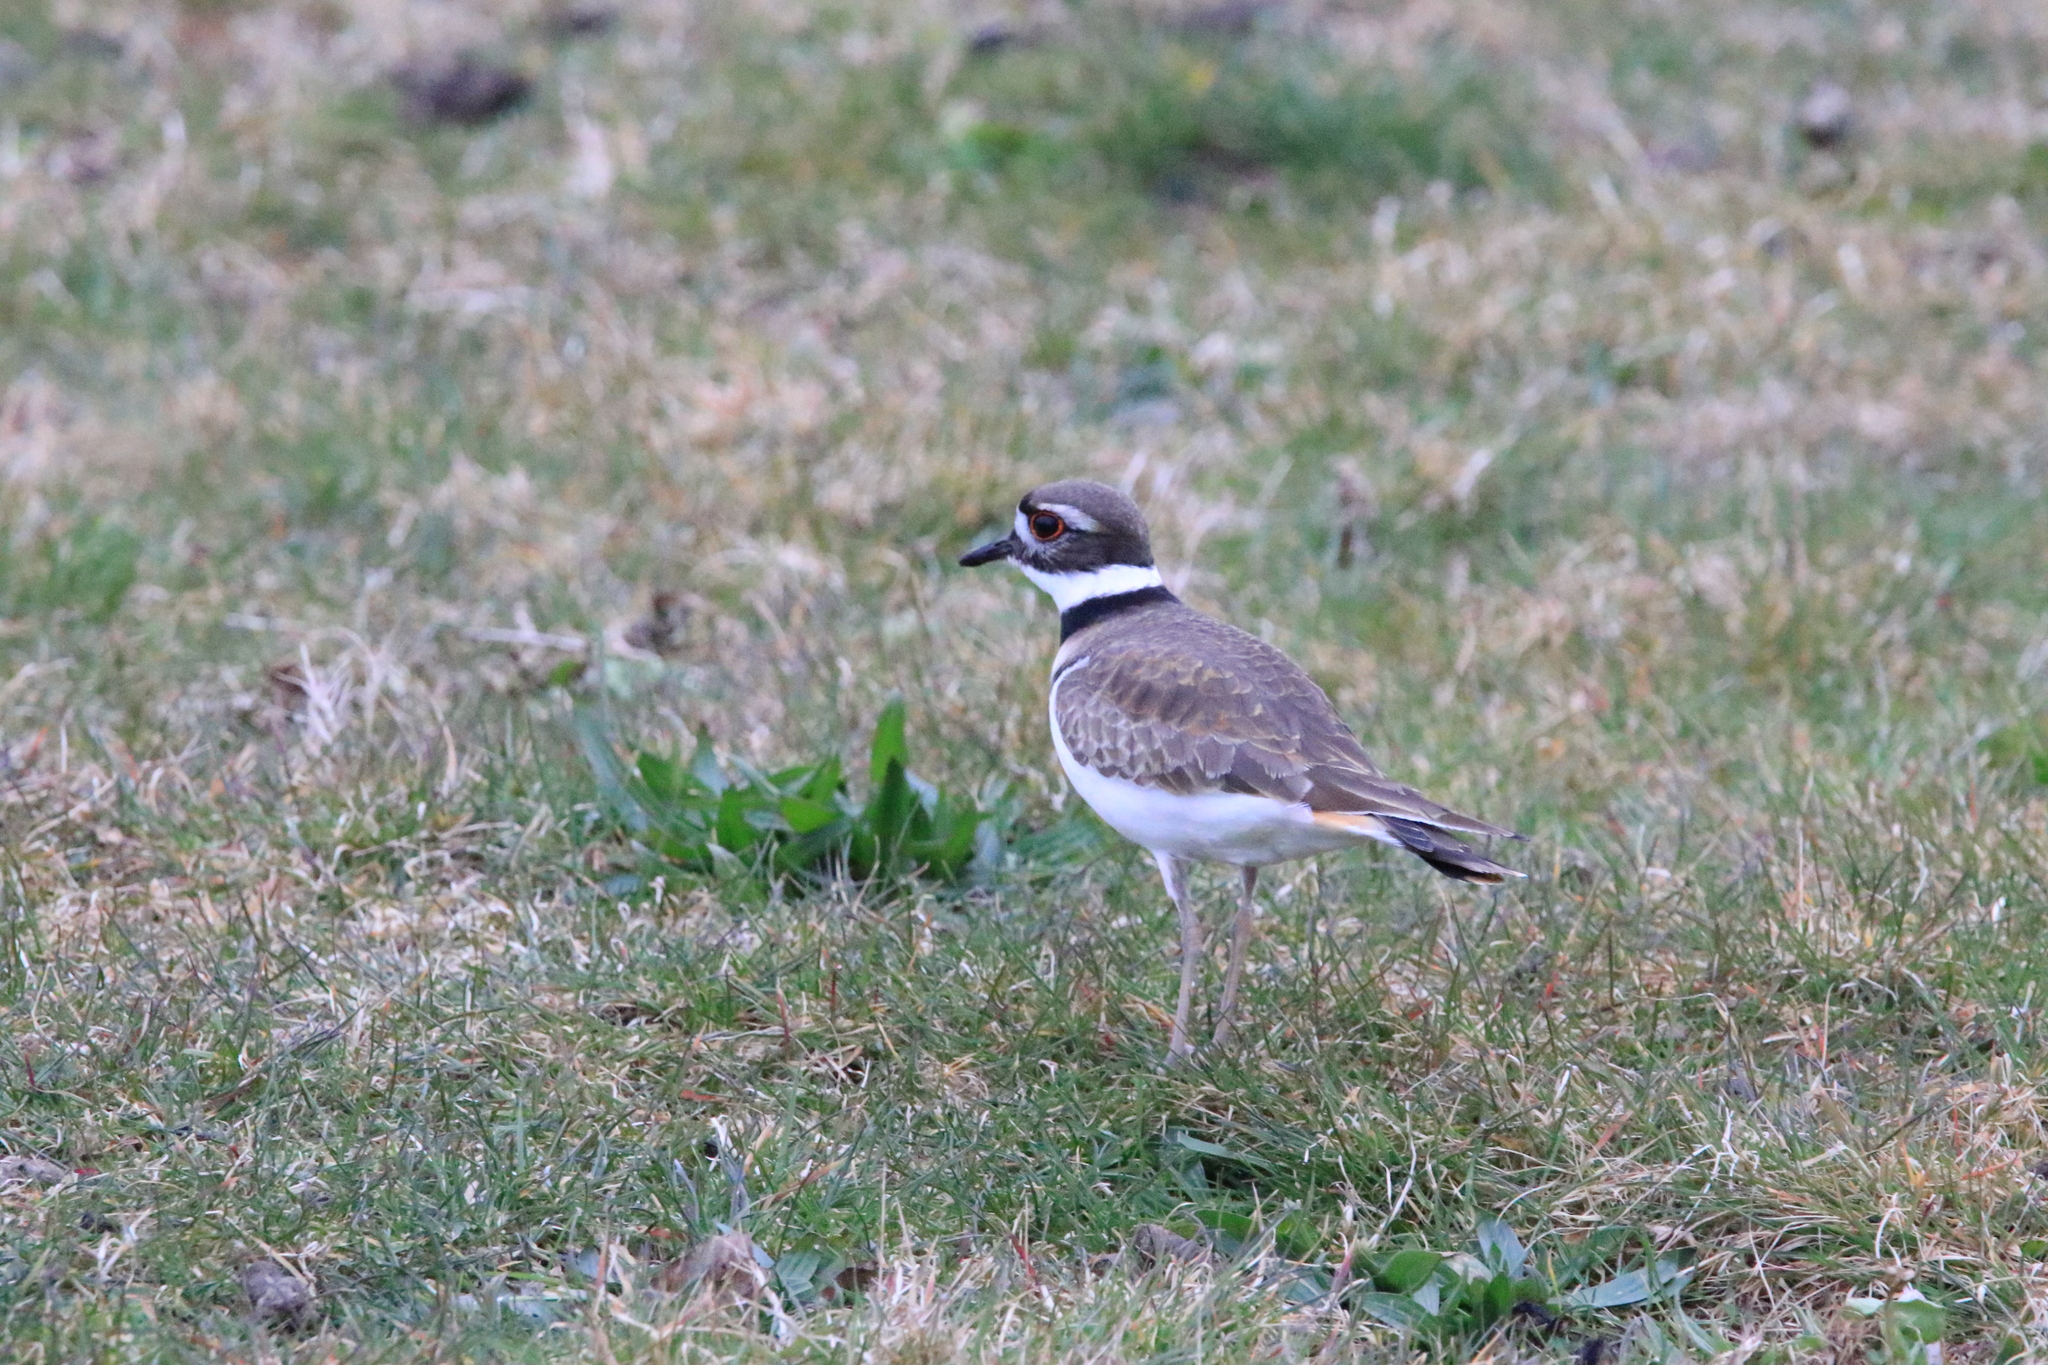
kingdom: Animalia
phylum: Chordata
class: Aves
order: Charadriiformes
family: Charadriidae
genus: Charadrius
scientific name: Charadrius vociferus
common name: Killdeer
